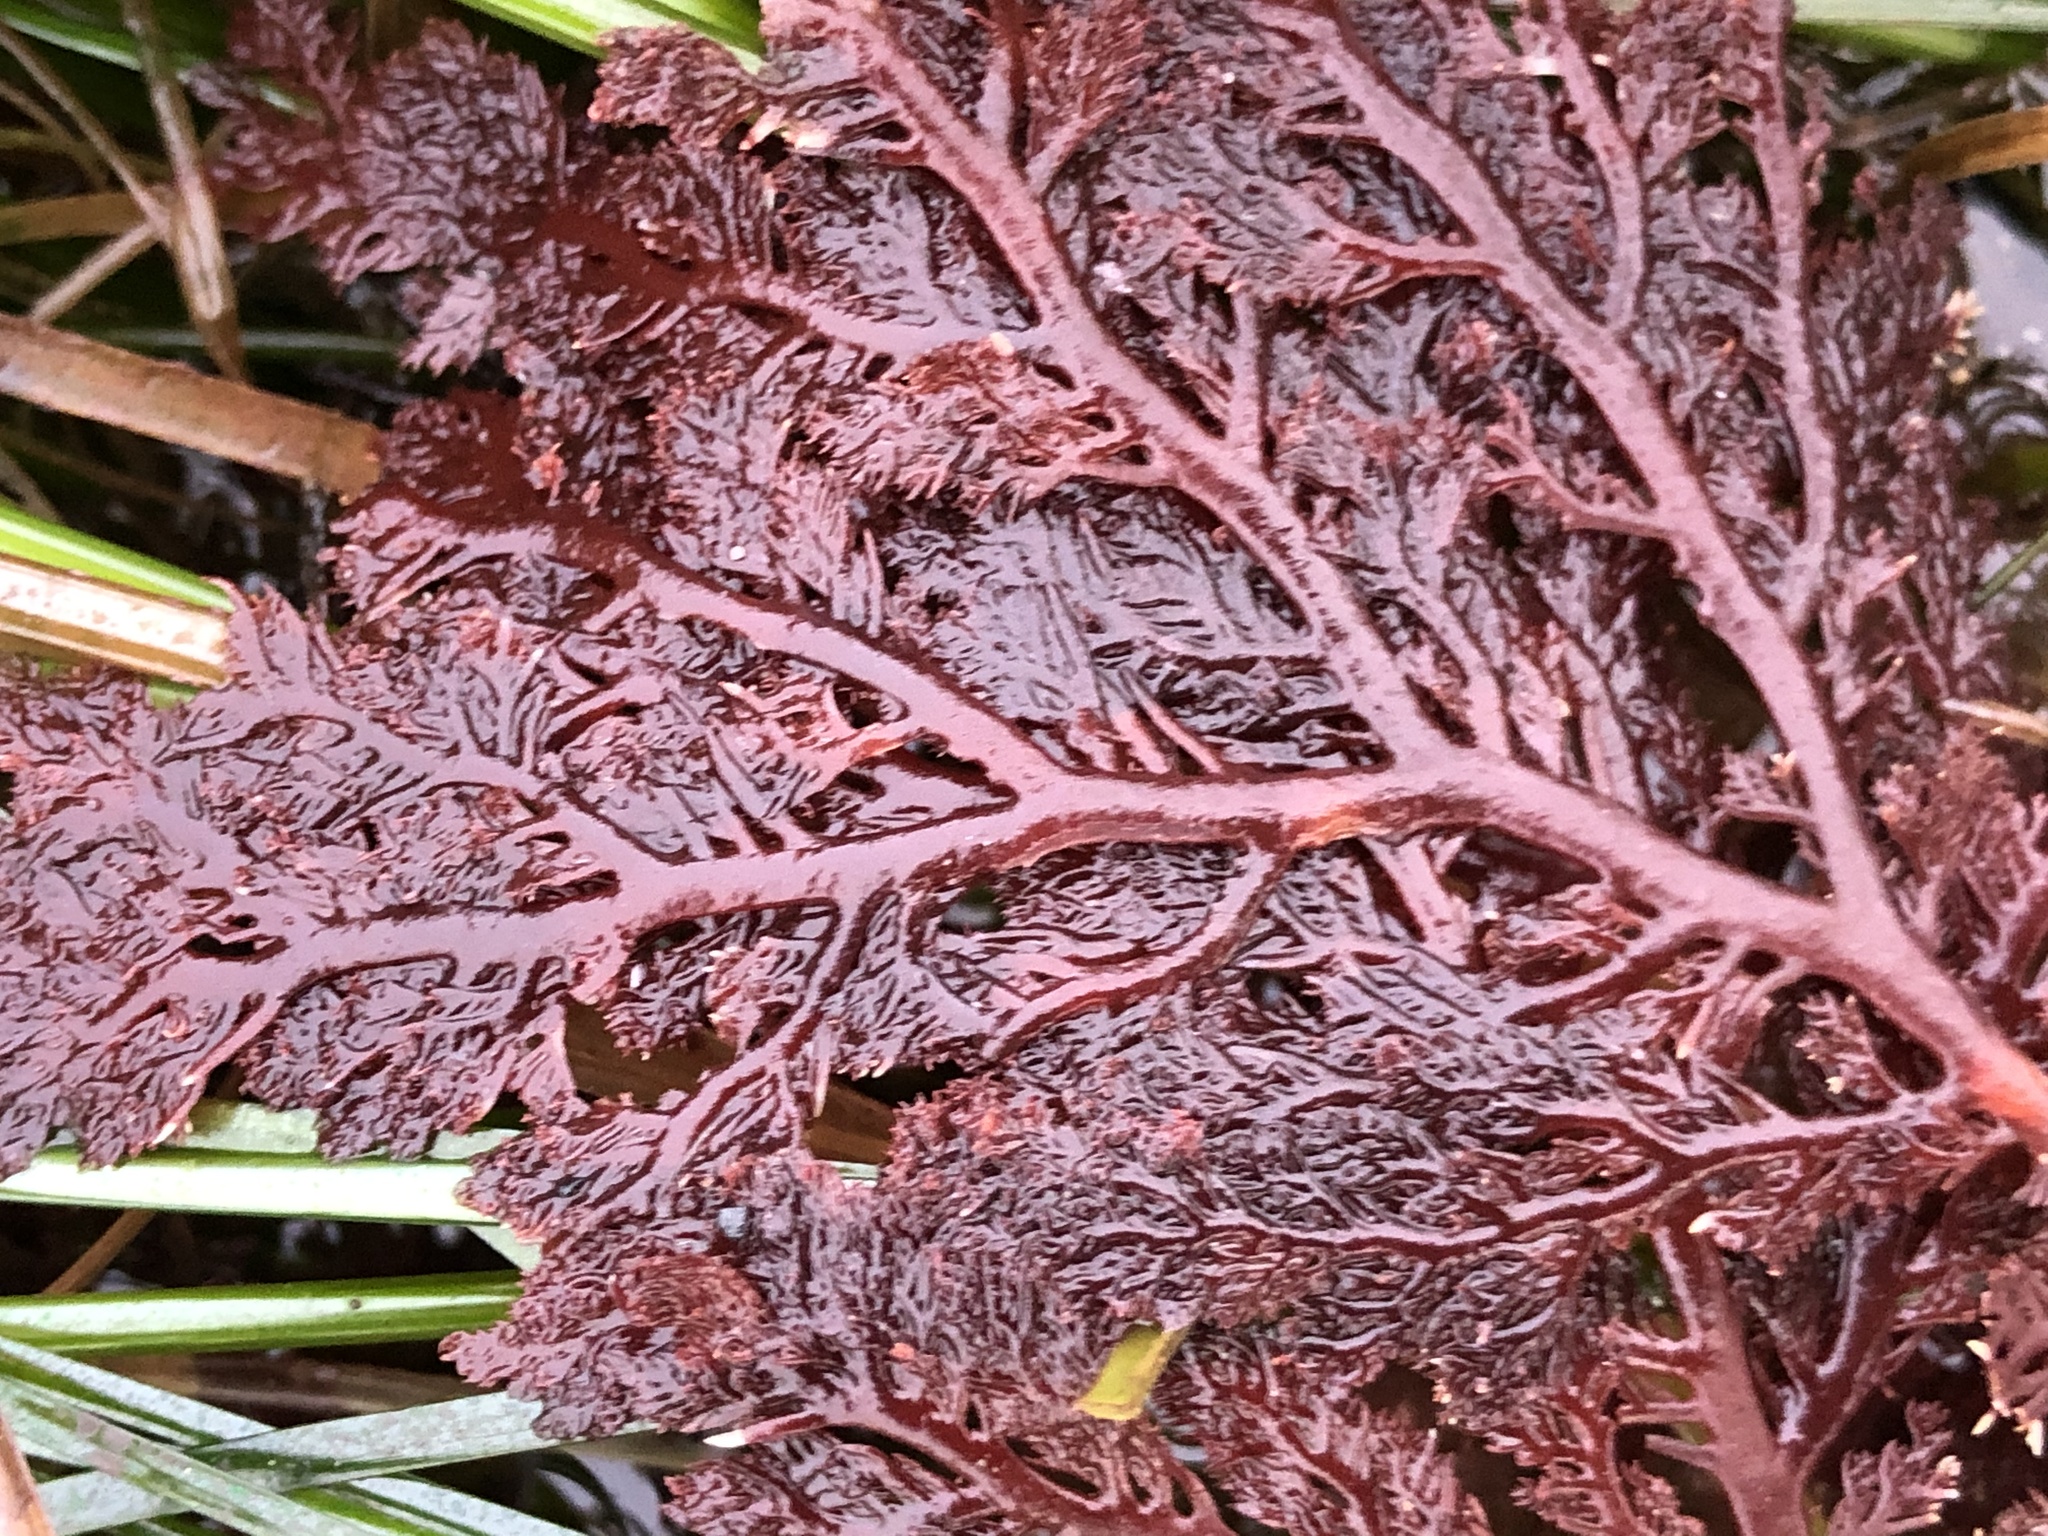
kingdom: Plantae
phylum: Rhodophyta
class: Florideophyceae
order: Plocamiales
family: Plocamiaceae
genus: Plocamium
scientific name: Plocamium cartilagineum
